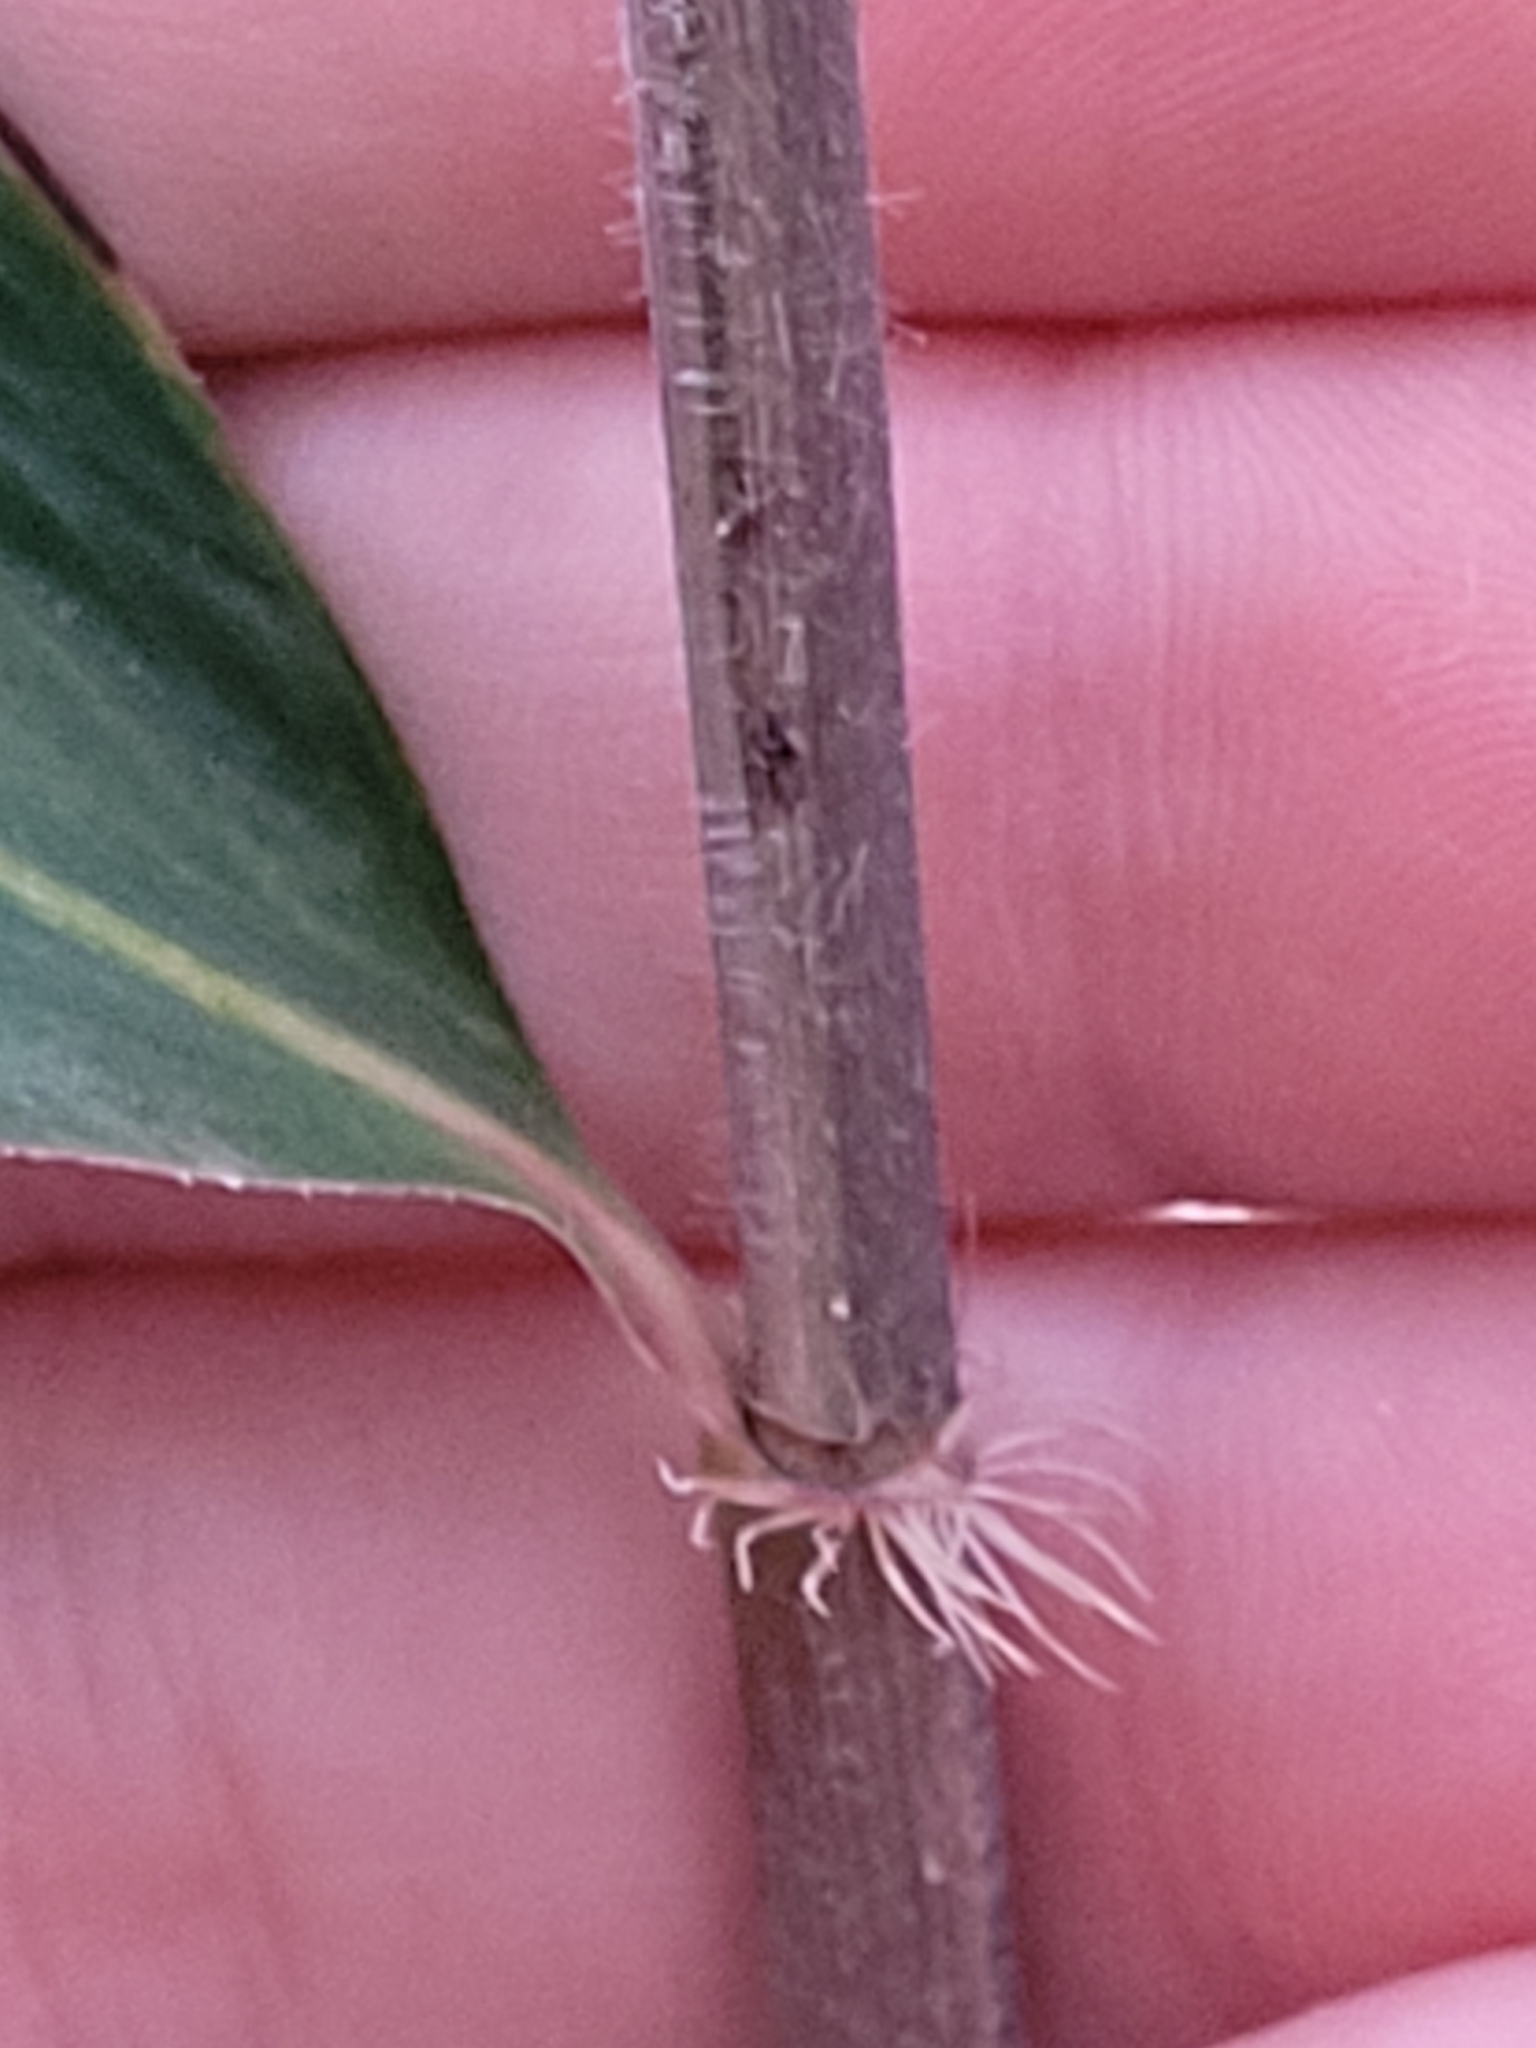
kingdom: Plantae
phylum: Tracheophyta
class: Liliopsida
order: Poales
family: Poaceae
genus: Arundinaria
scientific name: Arundinaria tecta
